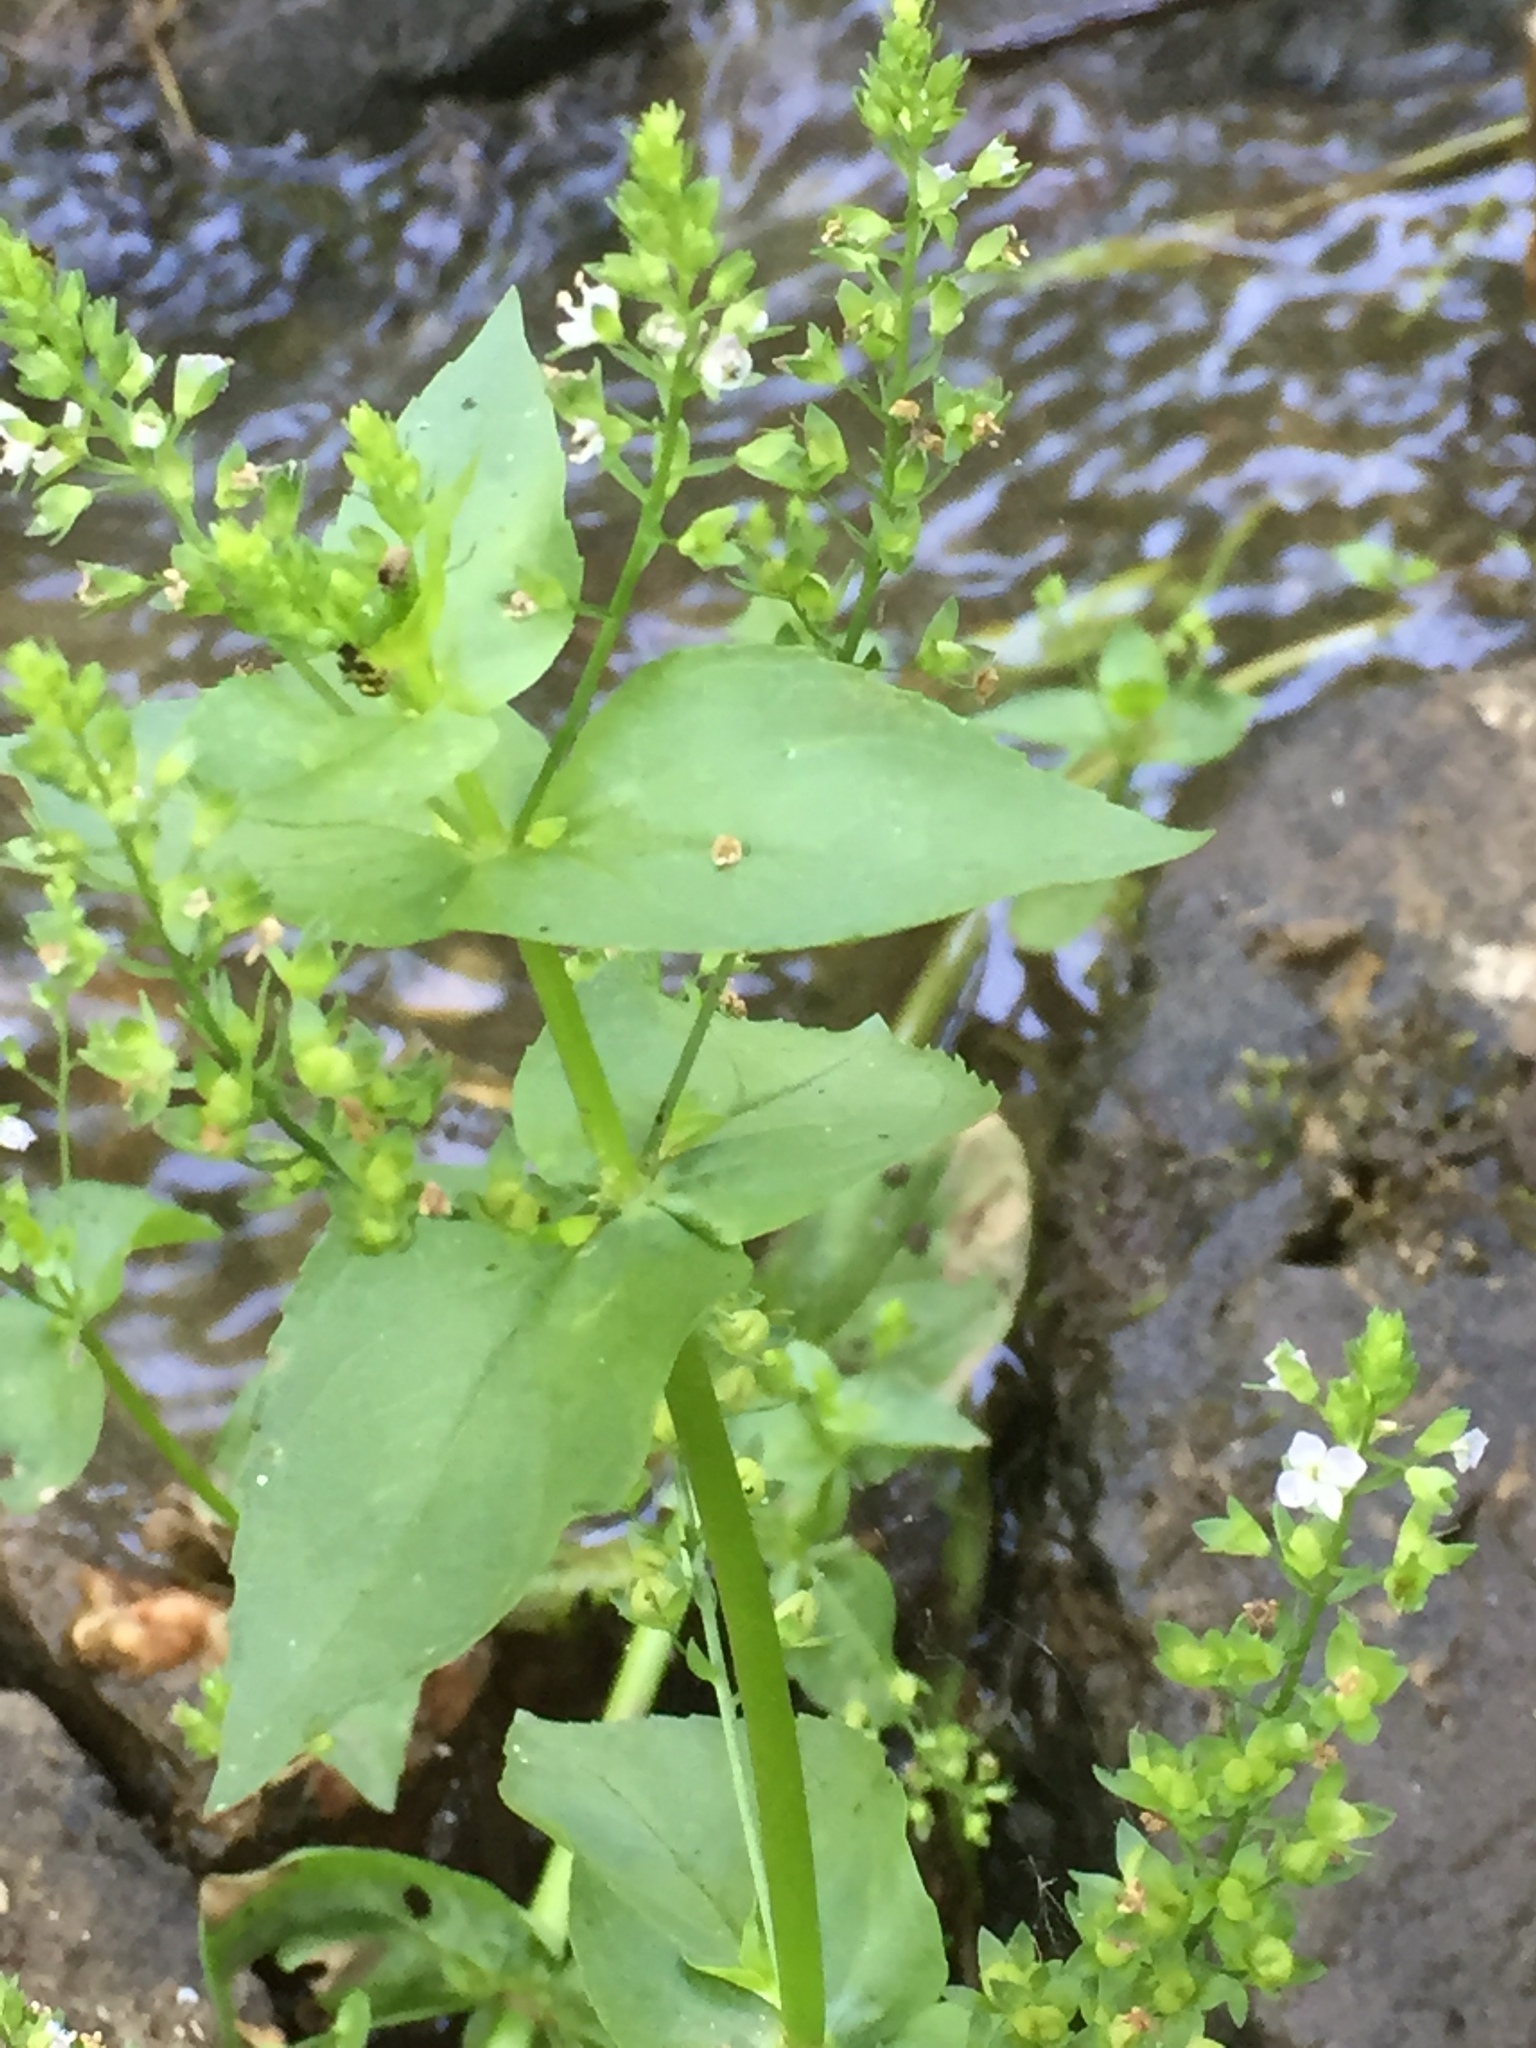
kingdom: Plantae
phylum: Tracheophyta
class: Magnoliopsida
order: Lamiales
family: Plantaginaceae
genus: Veronica
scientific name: Veronica anagallis-aquatica
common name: Water speedwell
